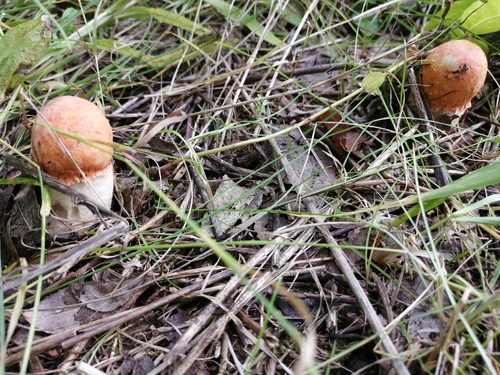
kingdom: Fungi
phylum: Basidiomycota
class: Agaricomycetes
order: Boletales
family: Boletaceae
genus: Leccinum
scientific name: Leccinum albostipitatum
